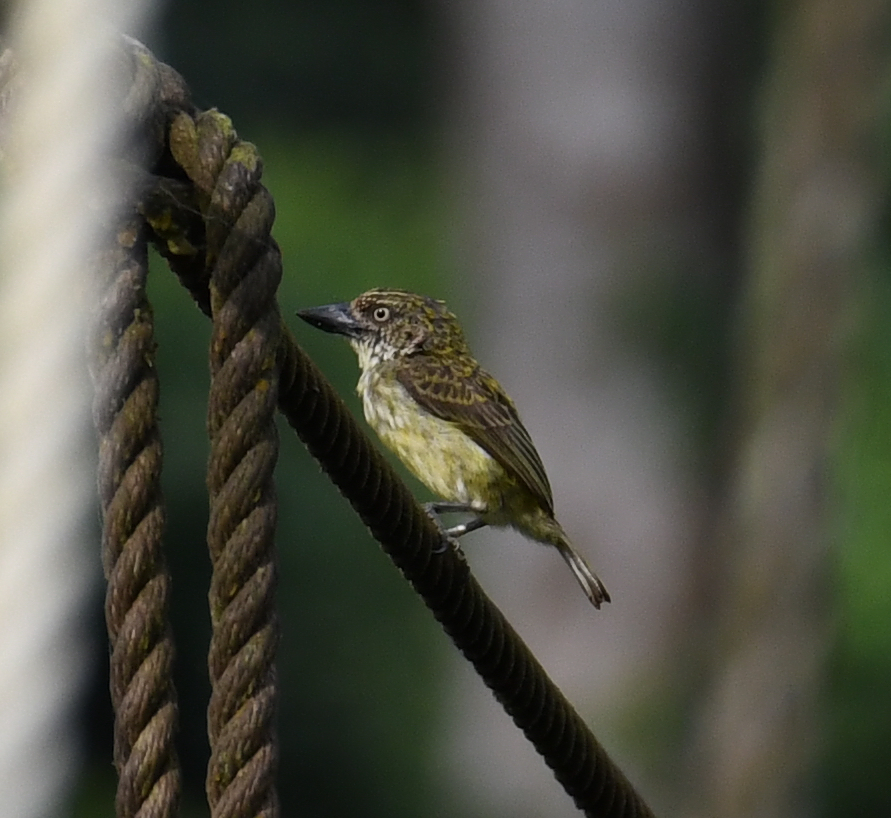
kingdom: Animalia
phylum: Chordata
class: Aves
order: Piciformes
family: Lybiidae
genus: Pogoniulus
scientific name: Pogoniulus scolopaceus
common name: Speckled tinkerbird
